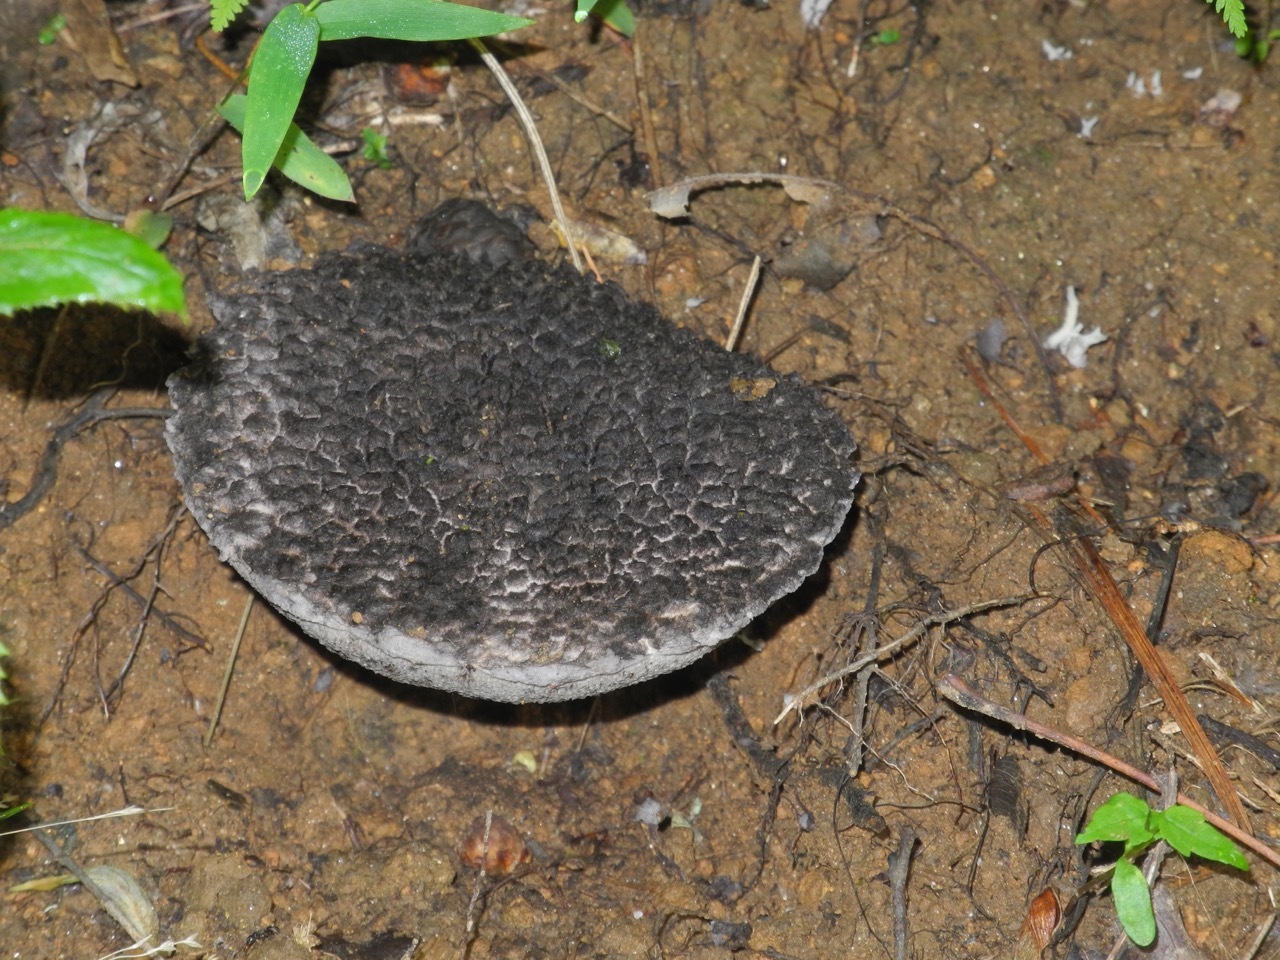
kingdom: Fungi
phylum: Basidiomycota
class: Agaricomycetes
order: Boletales
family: Boletaceae
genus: Strobilomyces
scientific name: Strobilomyces strobilaceus
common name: Old man of the woods
